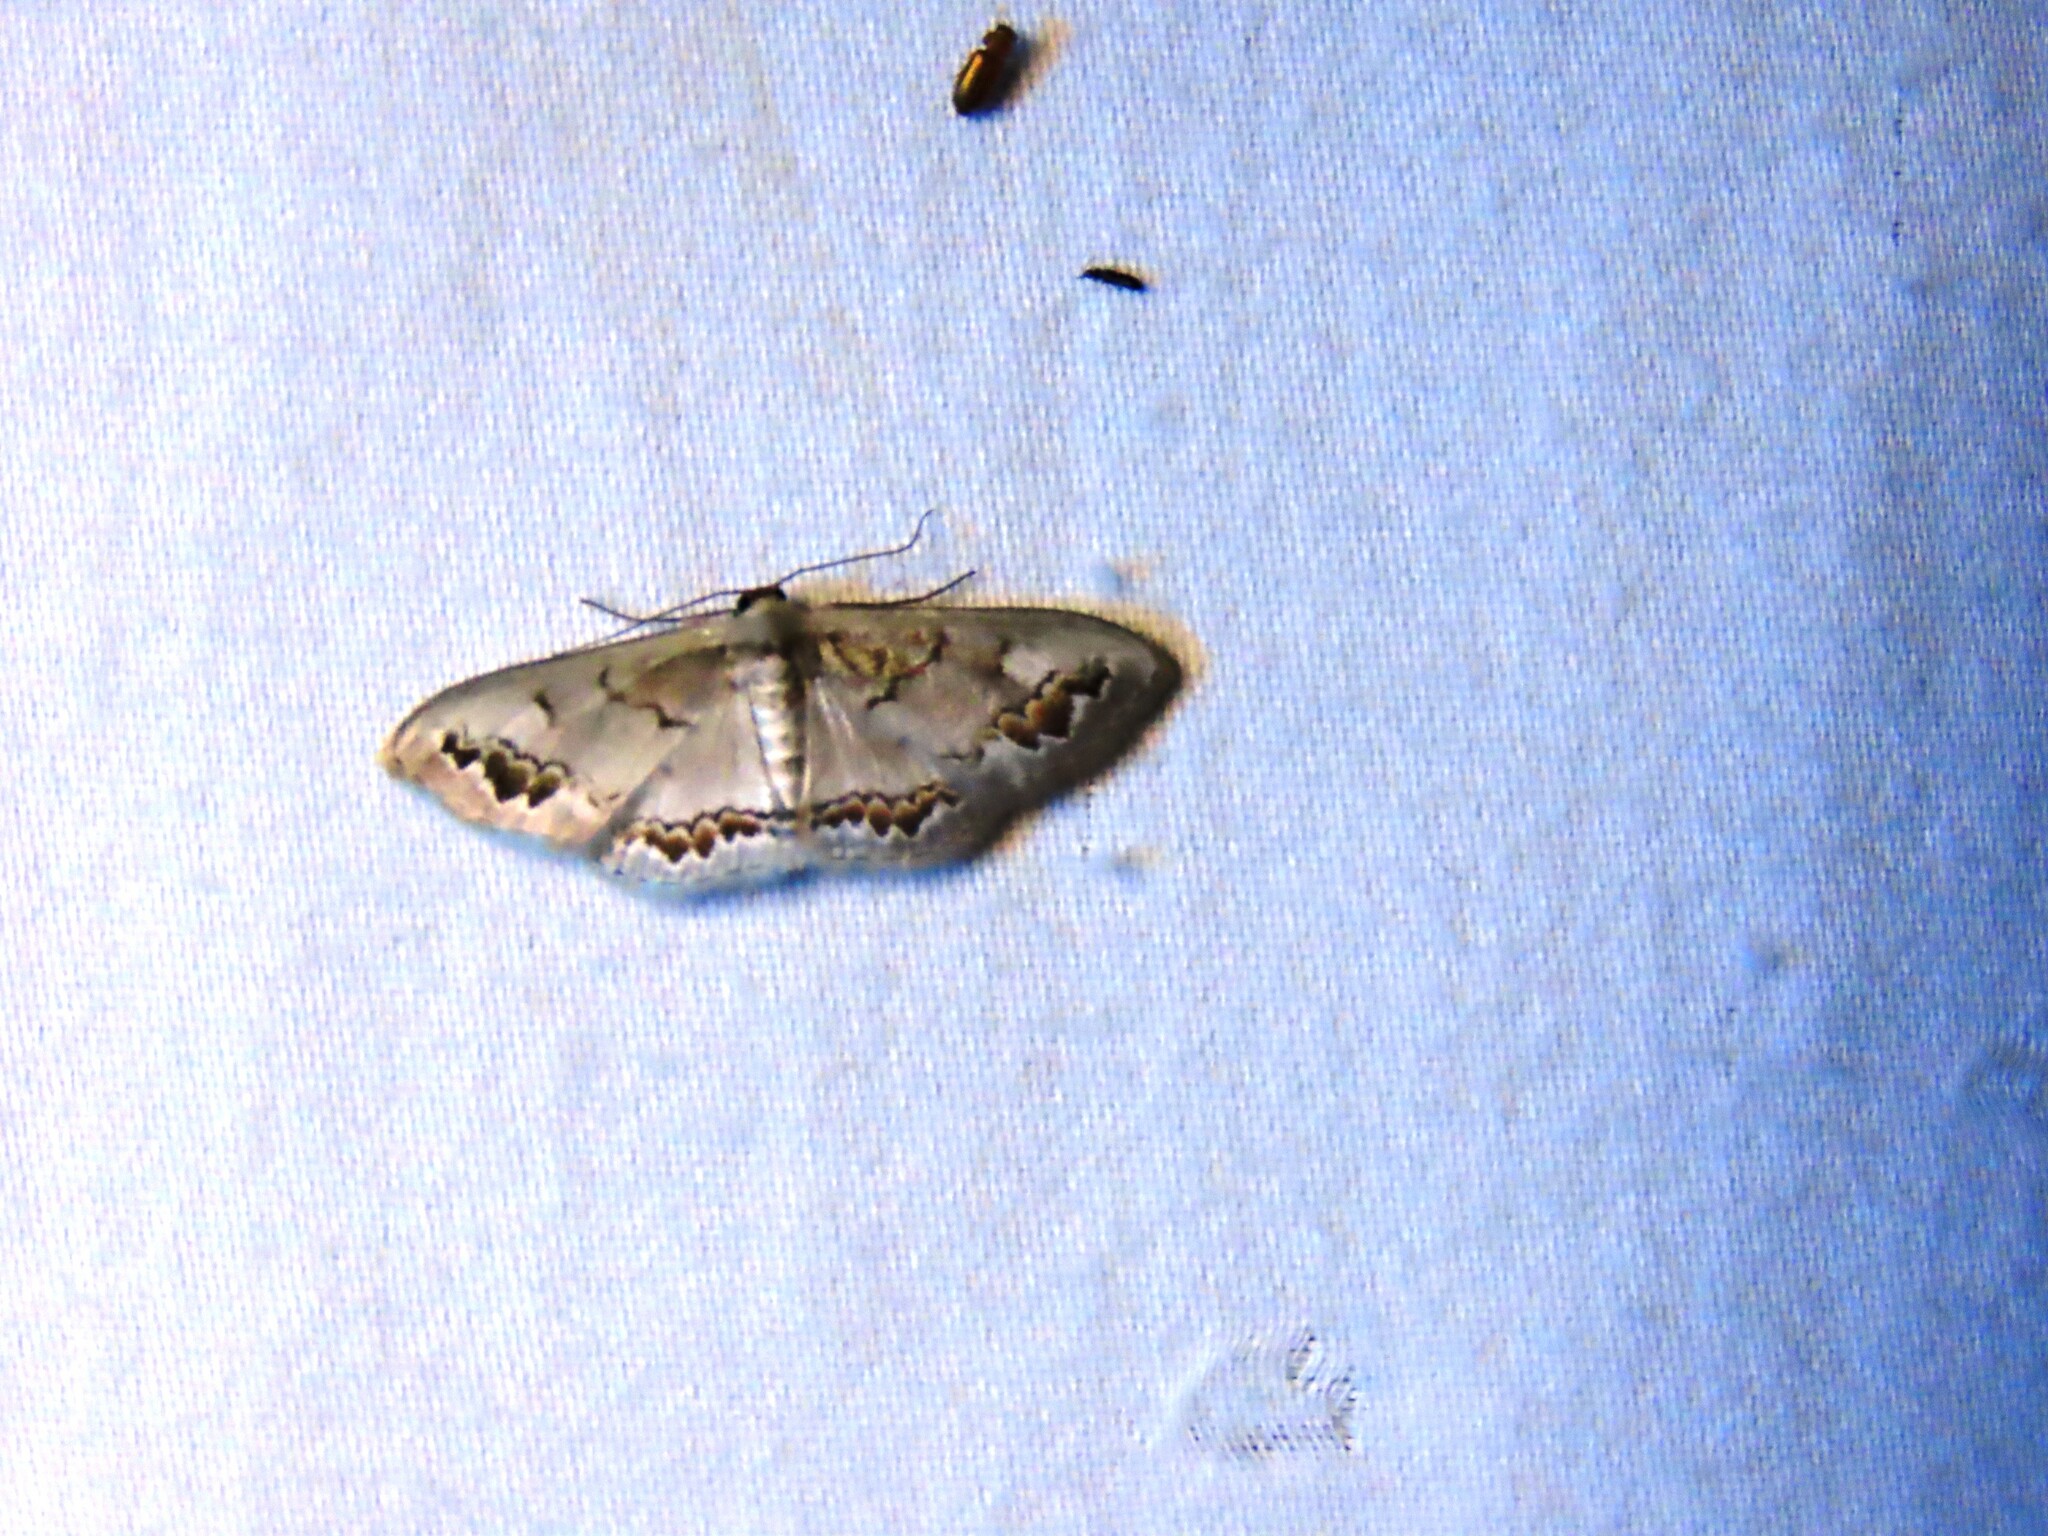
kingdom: Animalia
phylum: Arthropoda
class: Insecta
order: Lepidoptera
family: Geometridae
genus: Dithalama
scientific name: Dithalama cosmospila
